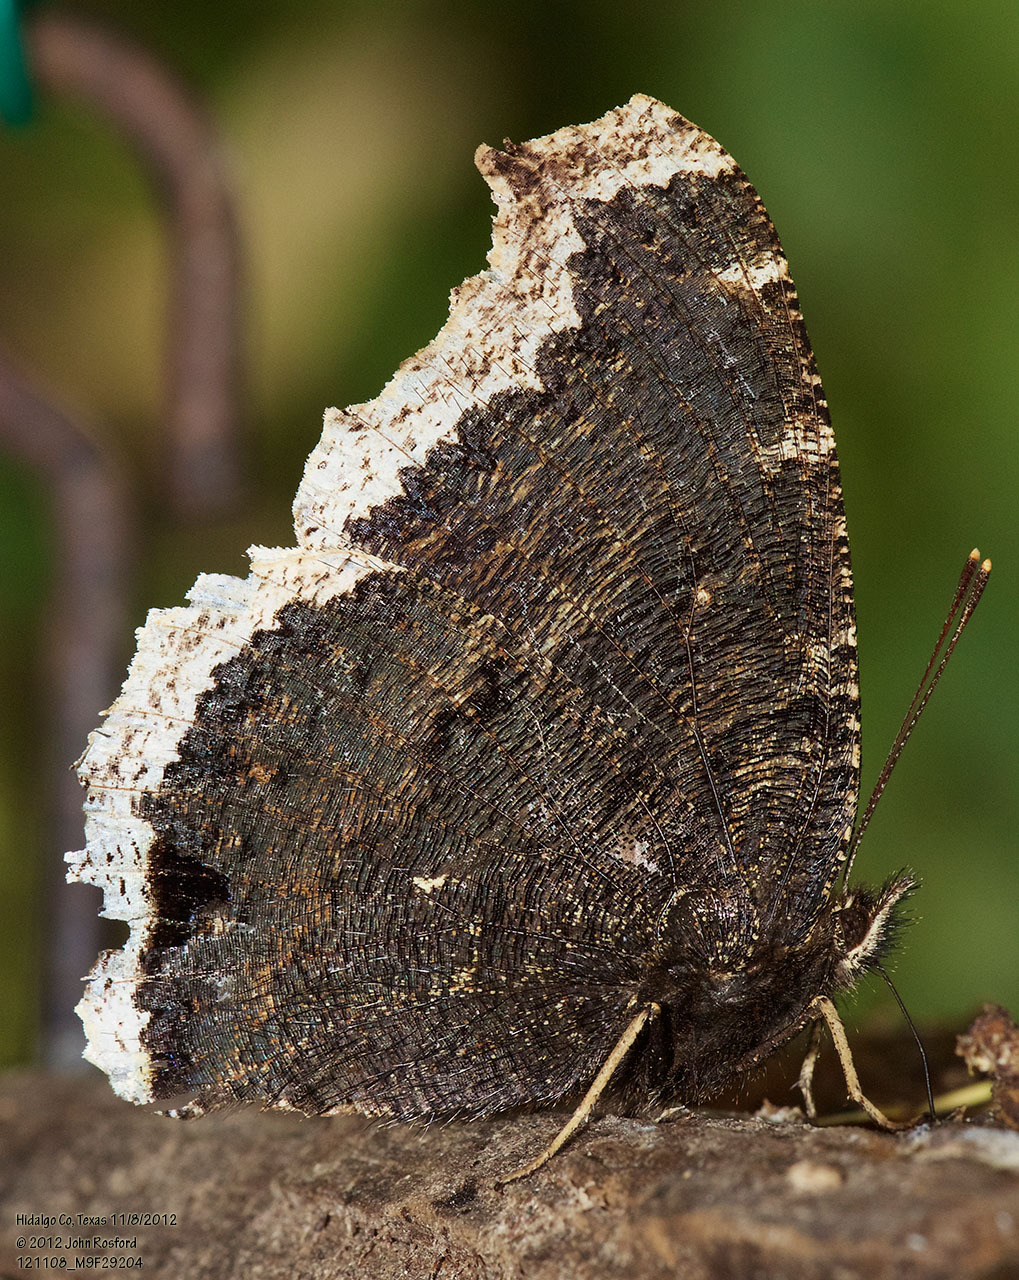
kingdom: Animalia
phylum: Arthropoda
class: Insecta
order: Lepidoptera
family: Nymphalidae
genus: Nymphalis
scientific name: Nymphalis antiopa
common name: Camberwell beauty
